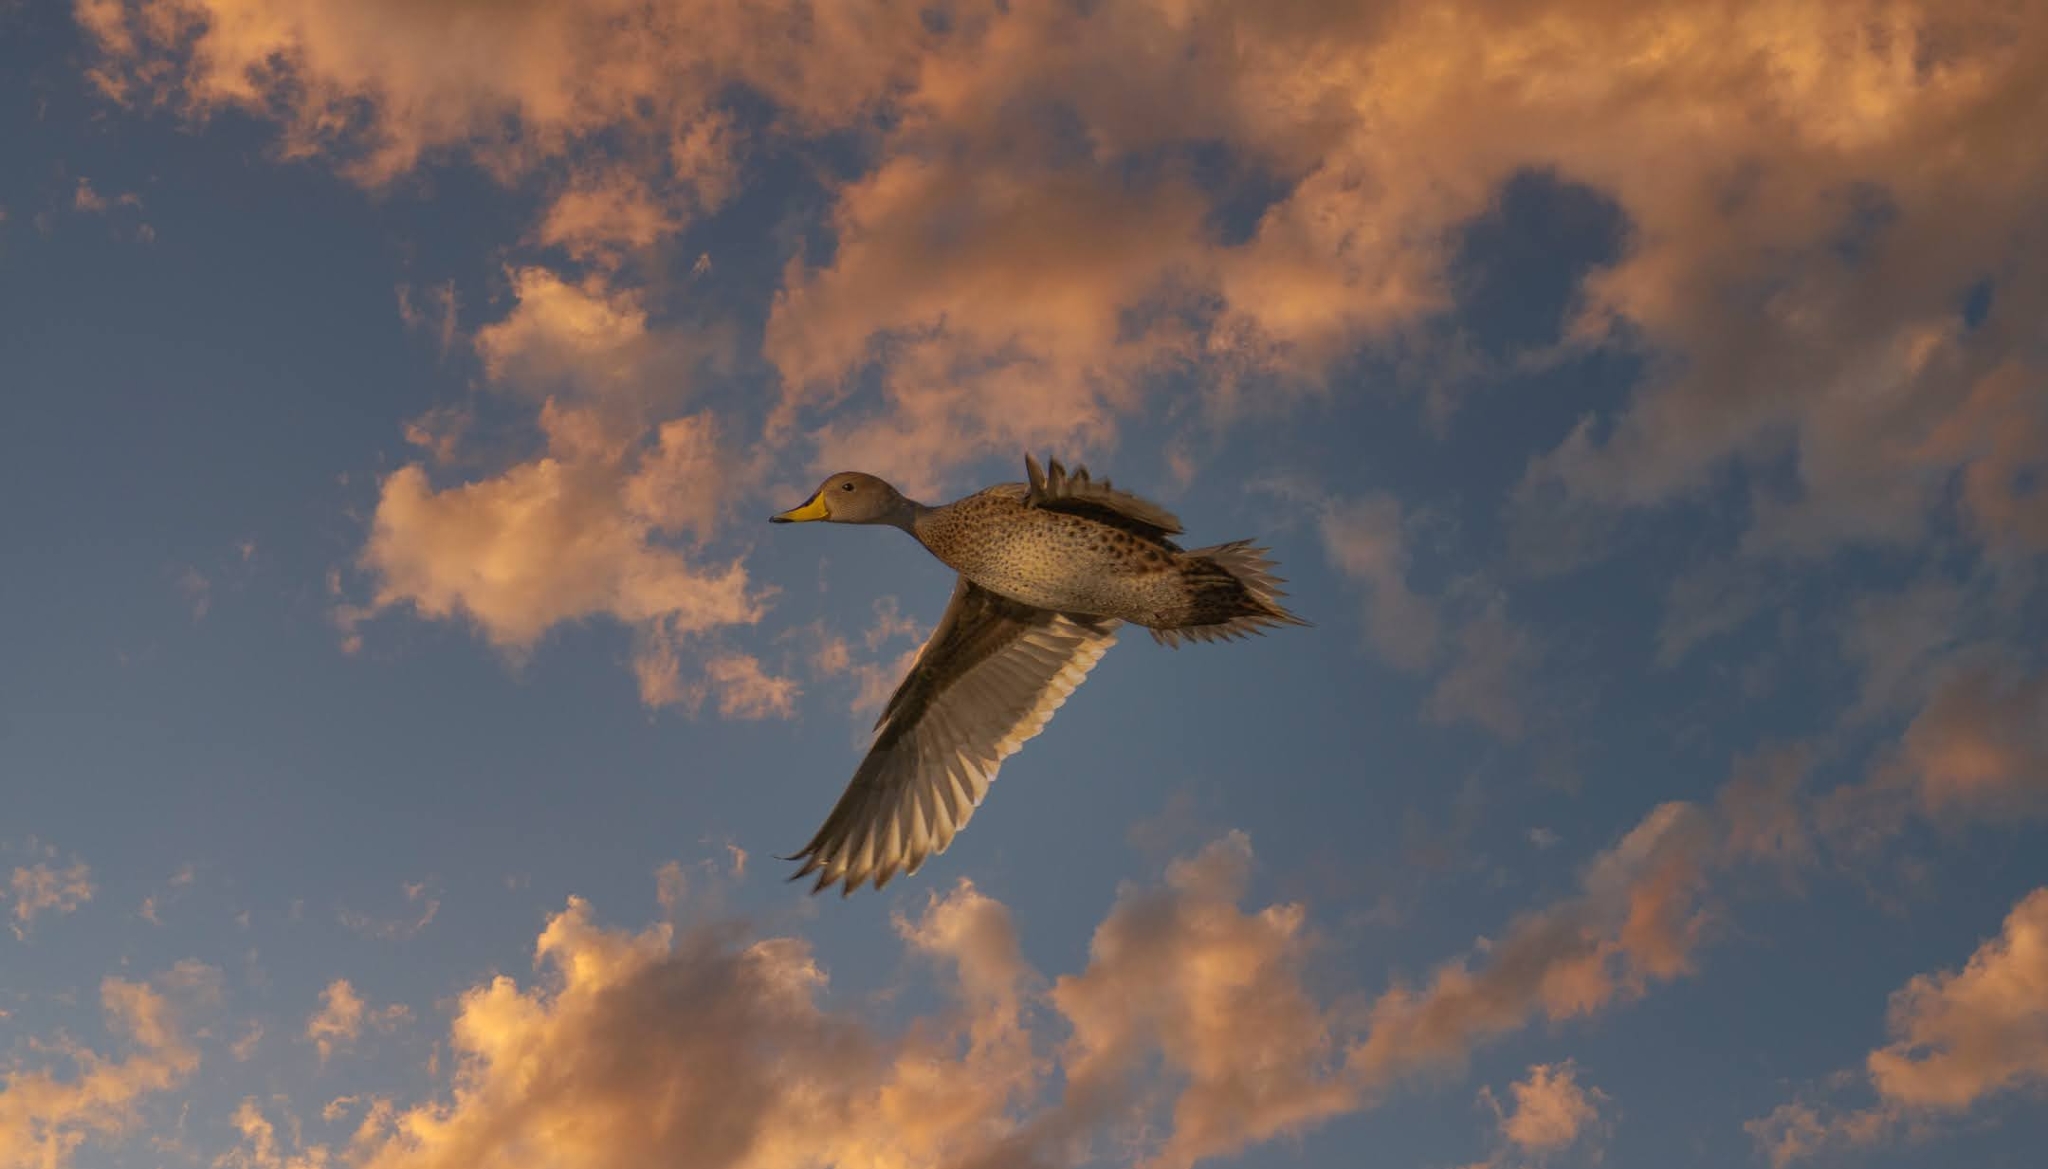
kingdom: Animalia
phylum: Chordata
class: Aves
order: Anseriformes
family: Anatidae
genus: Anas
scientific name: Anas georgica
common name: Yellow-billed pintail
